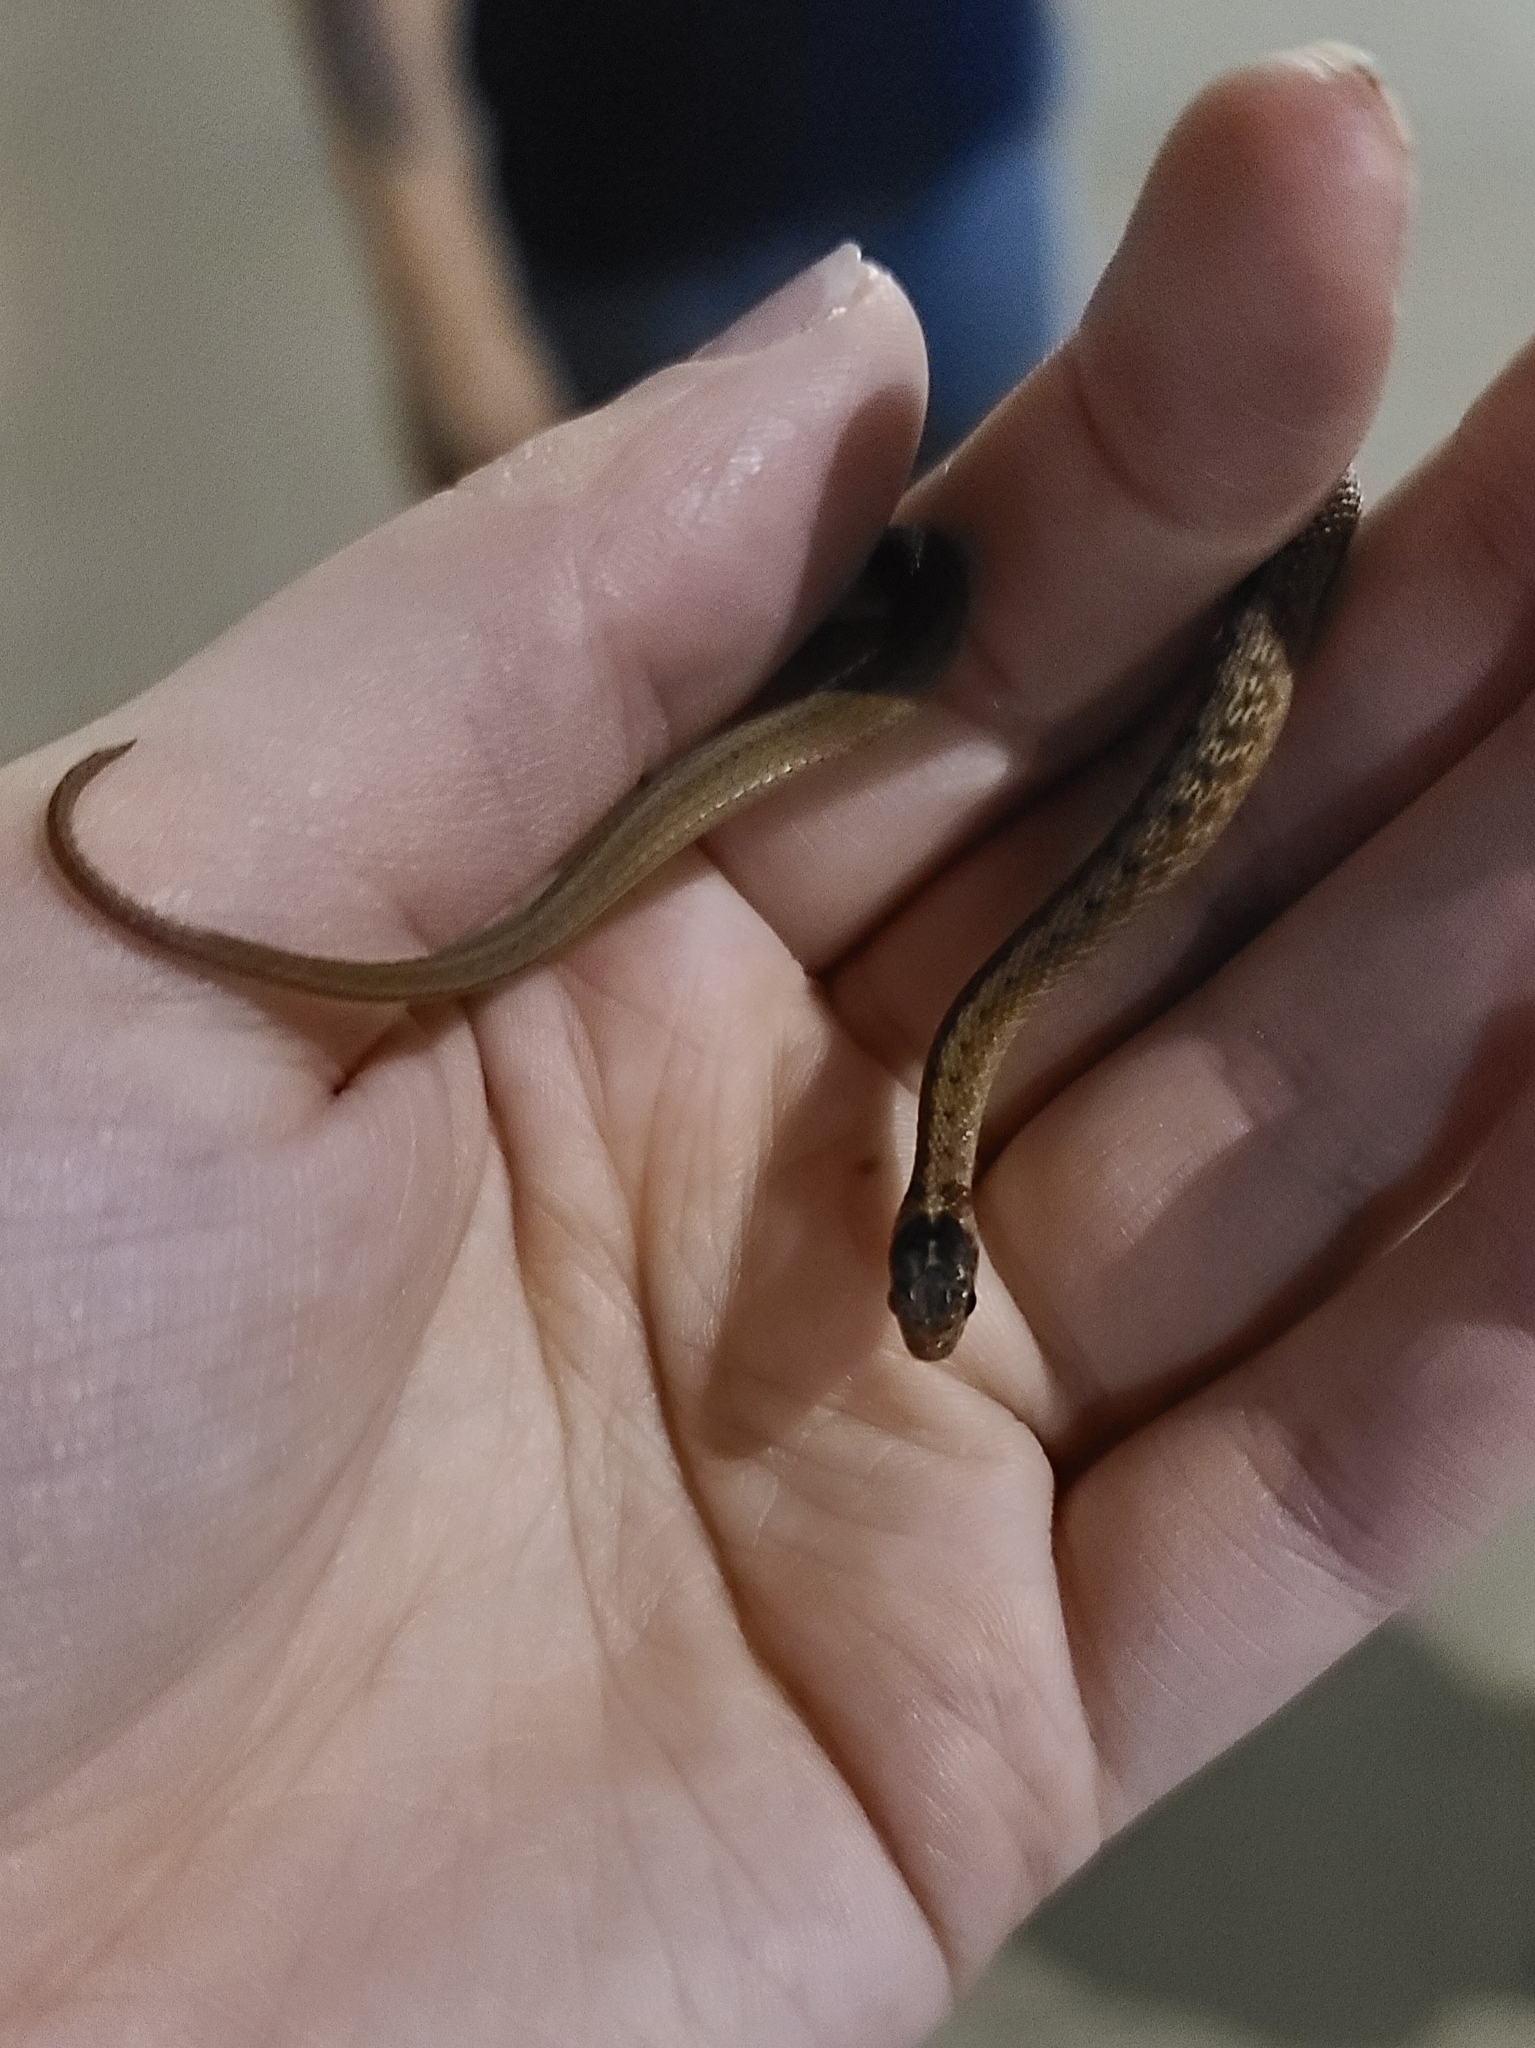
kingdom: Animalia
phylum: Chordata
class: Squamata
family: Colubridae
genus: Storeria
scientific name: Storeria dekayi
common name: (dekay’s) brown snake
